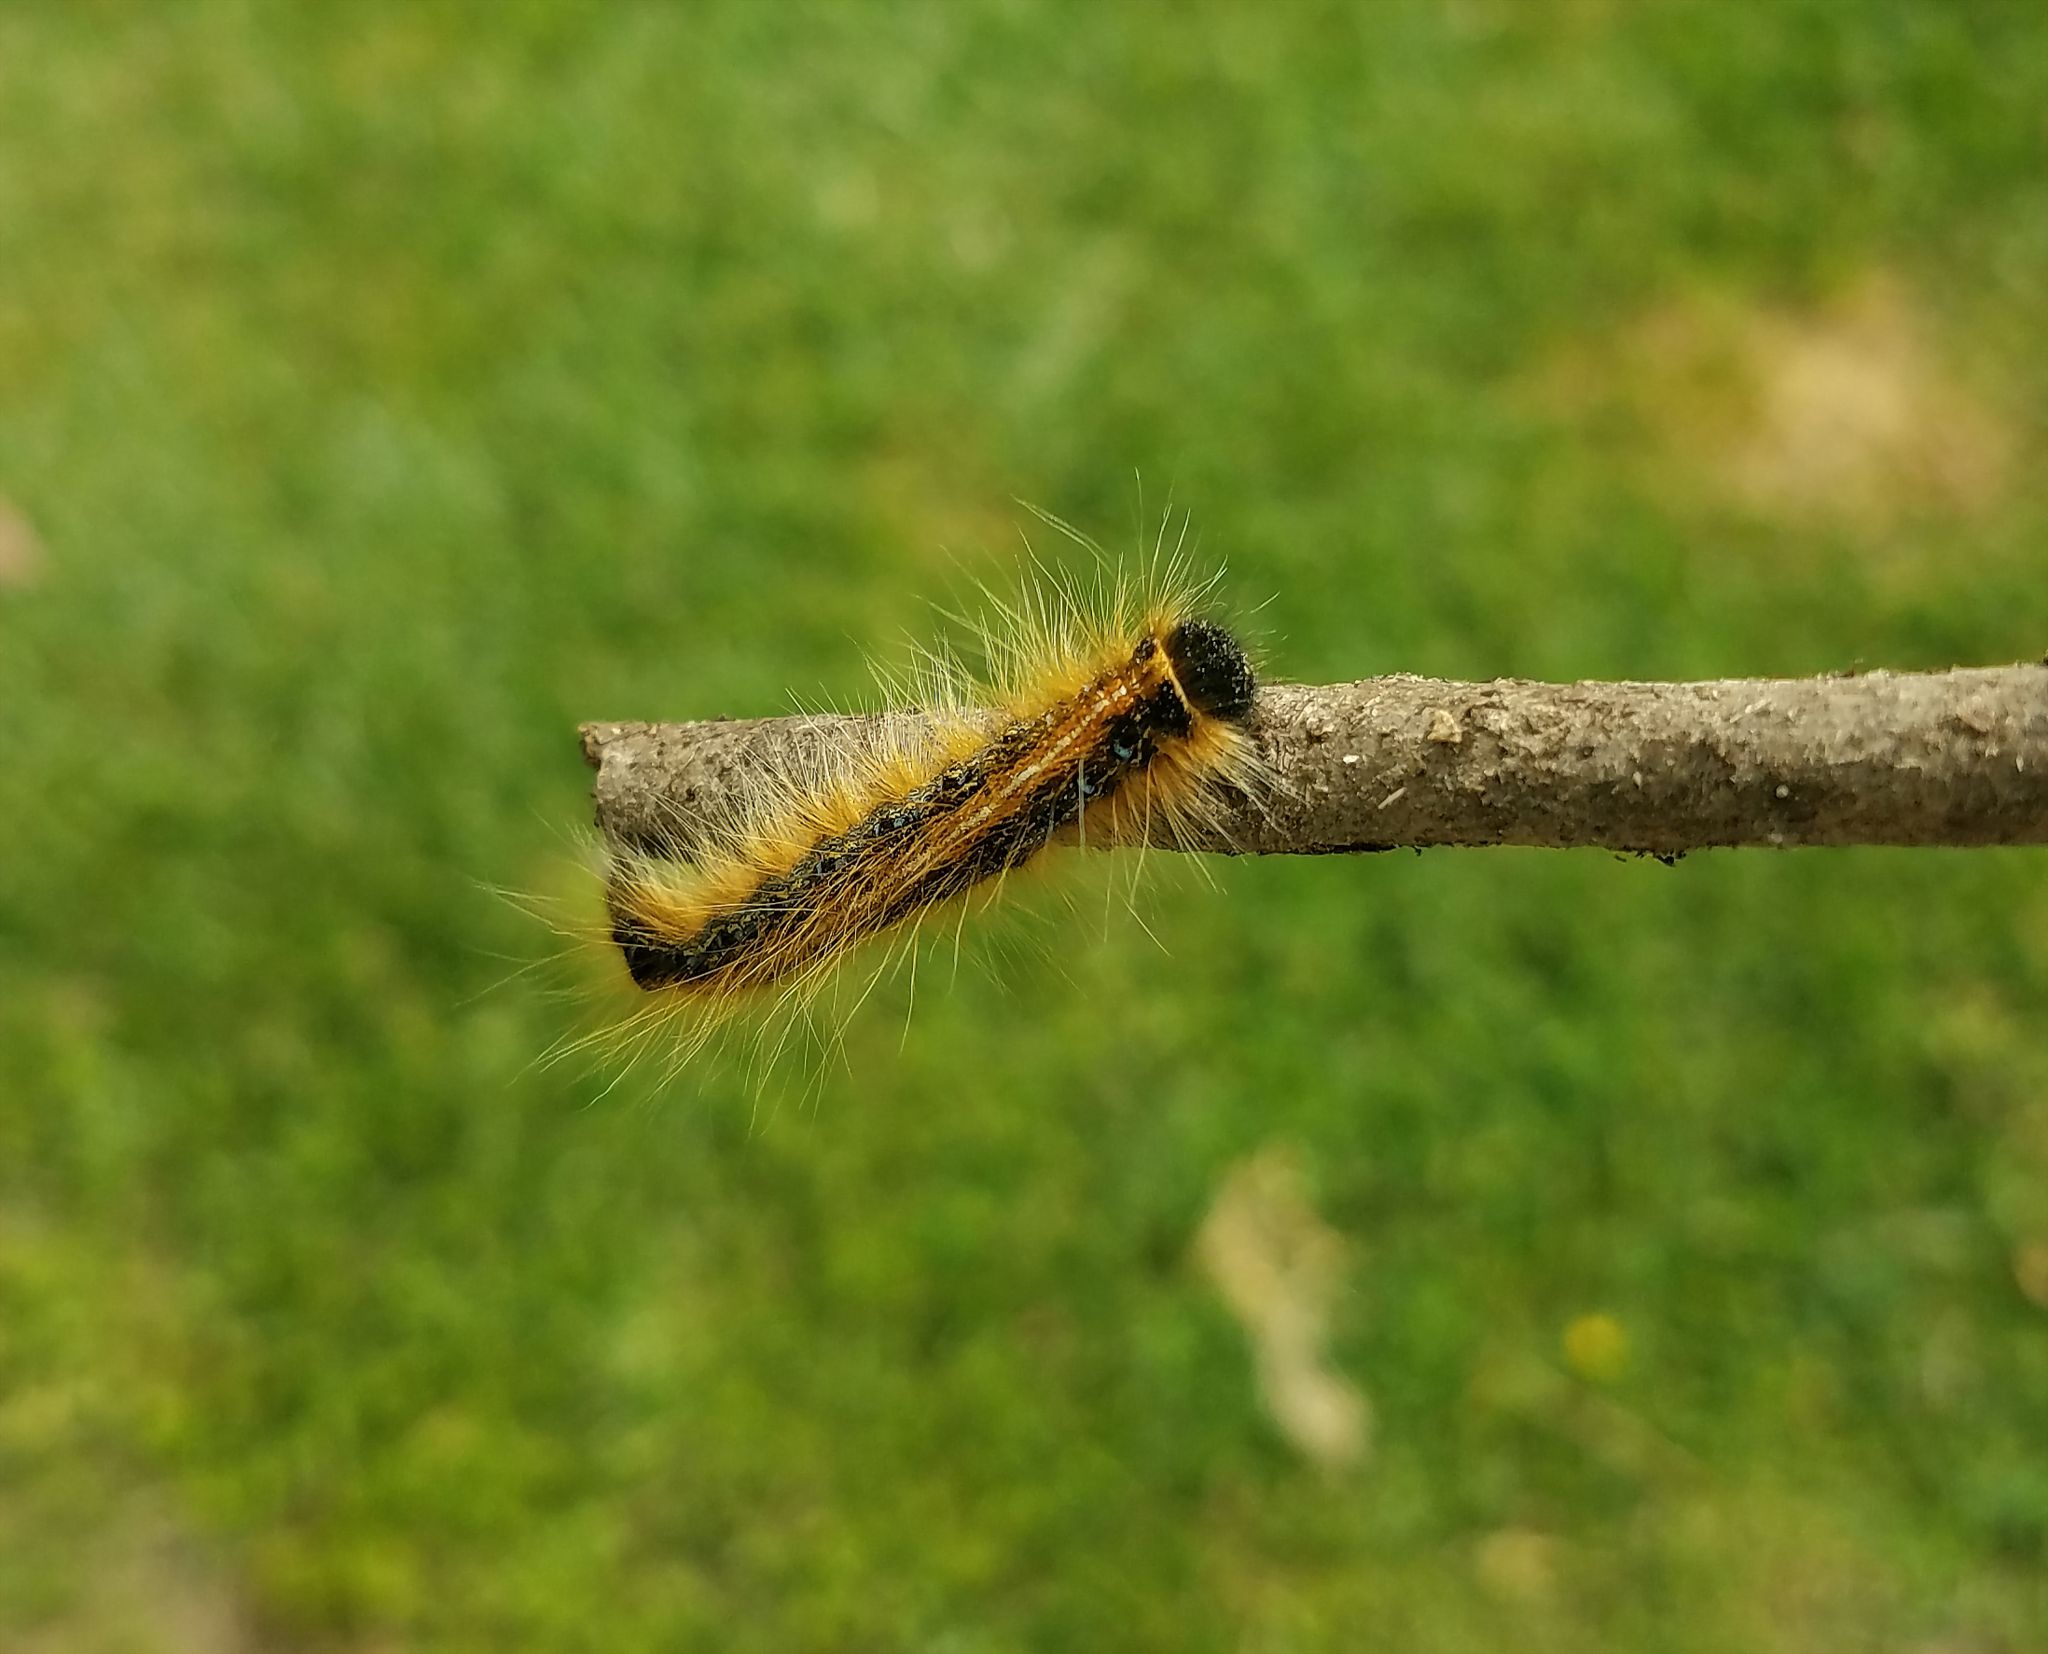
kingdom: Animalia
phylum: Arthropoda
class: Insecta
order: Lepidoptera
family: Lasiocampidae
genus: Malacosoma
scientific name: Malacosoma americana
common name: Eastern tent caterpillar moth
